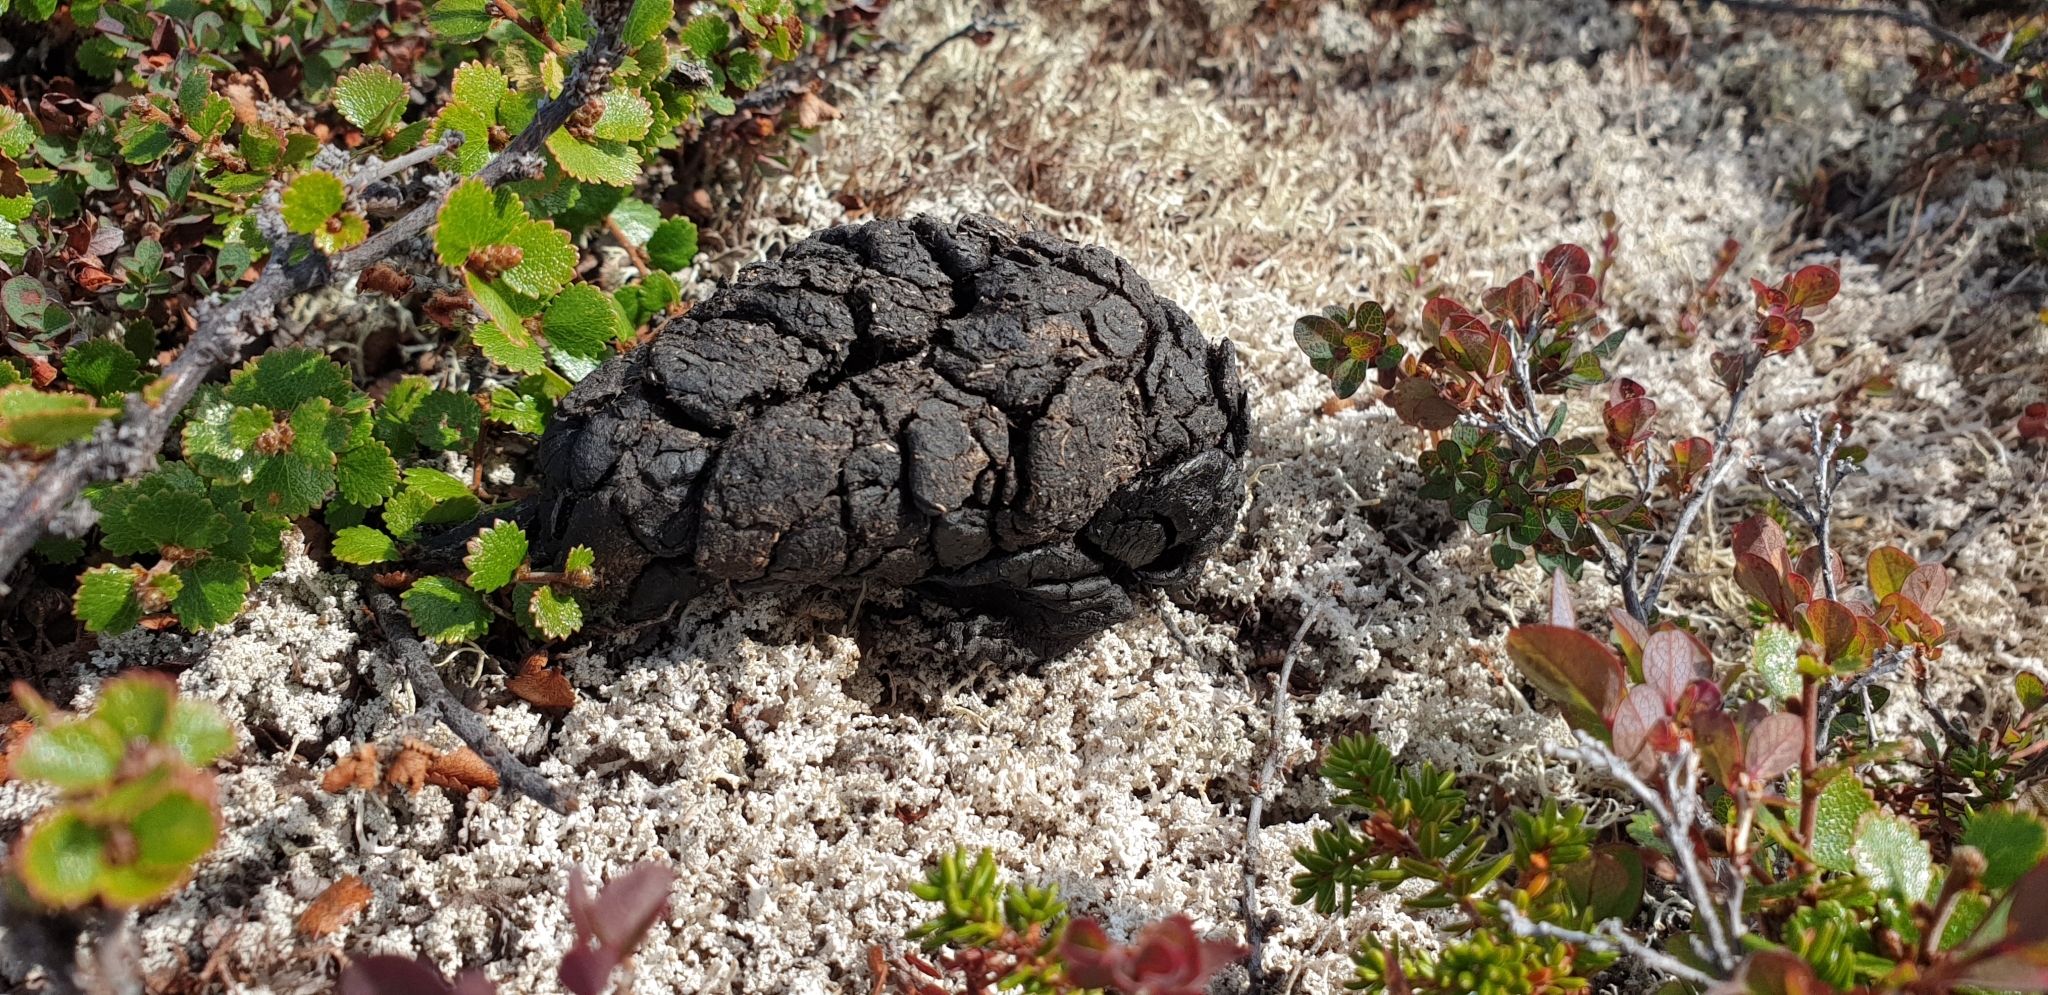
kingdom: Animalia
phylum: Chordata
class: Mammalia
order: Artiodactyla
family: Bovidae
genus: Ovibos
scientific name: Ovibos moschatus
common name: Muskox
